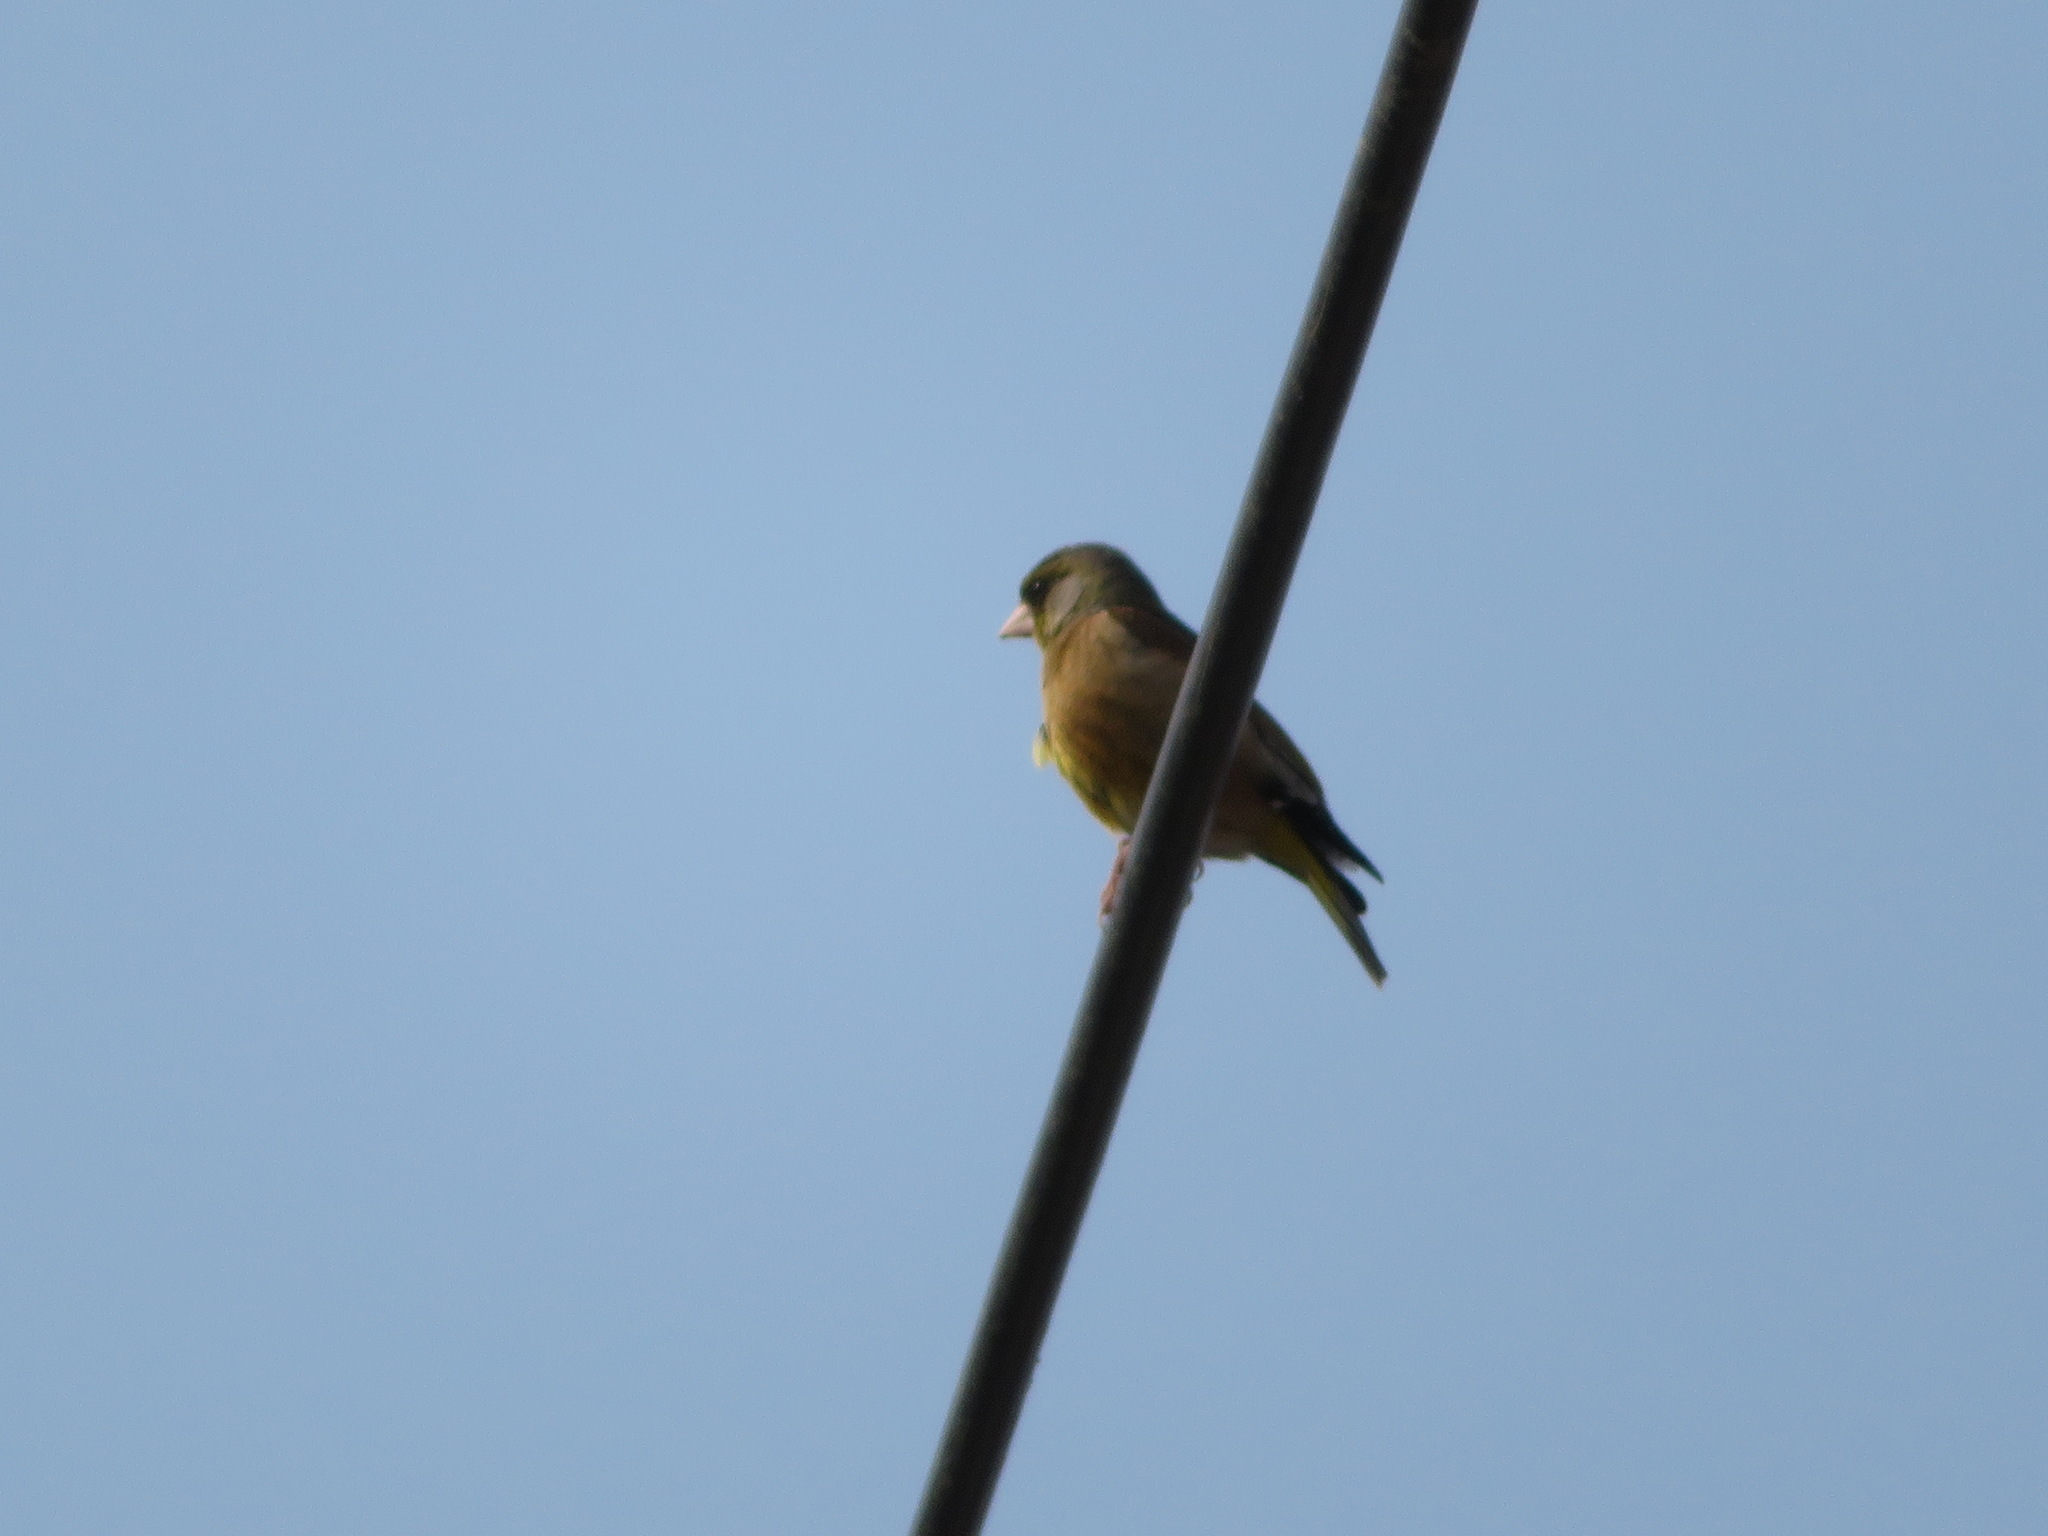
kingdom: Plantae
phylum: Tracheophyta
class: Liliopsida
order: Poales
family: Poaceae
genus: Chloris
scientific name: Chloris sinica
